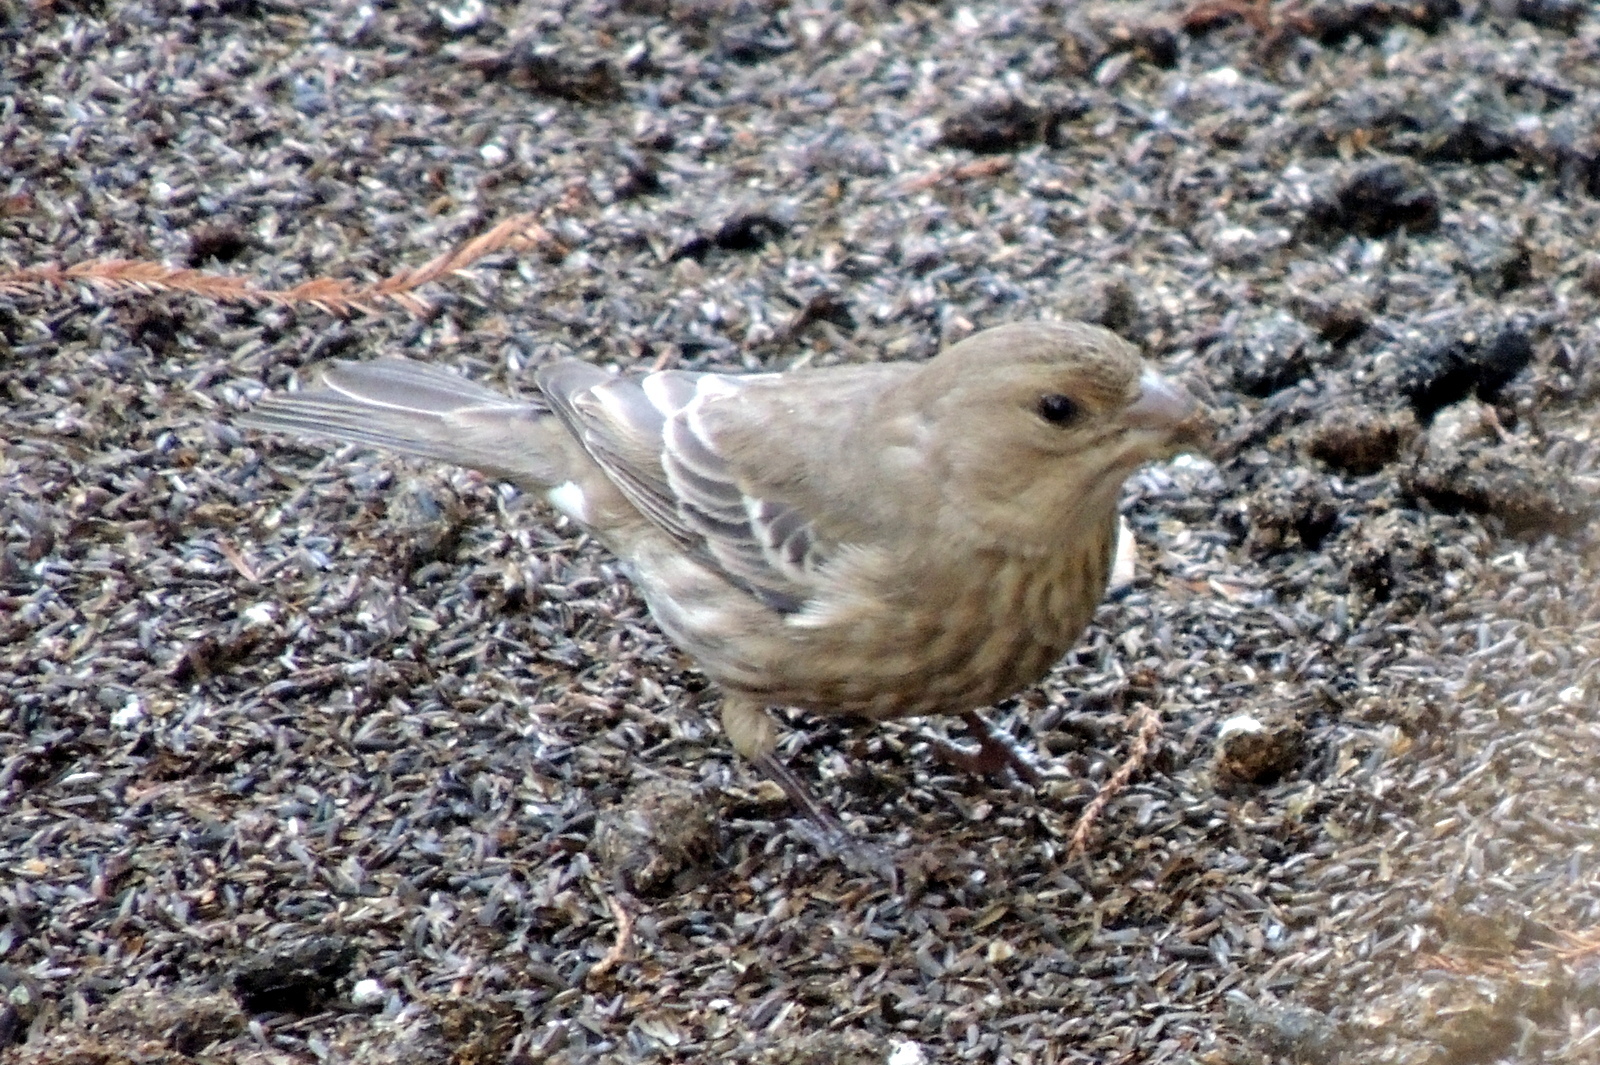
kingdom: Animalia
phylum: Chordata
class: Aves
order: Passeriformes
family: Fringillidae
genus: Haemorhous
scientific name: Haemorhous mexicanus
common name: House finch
